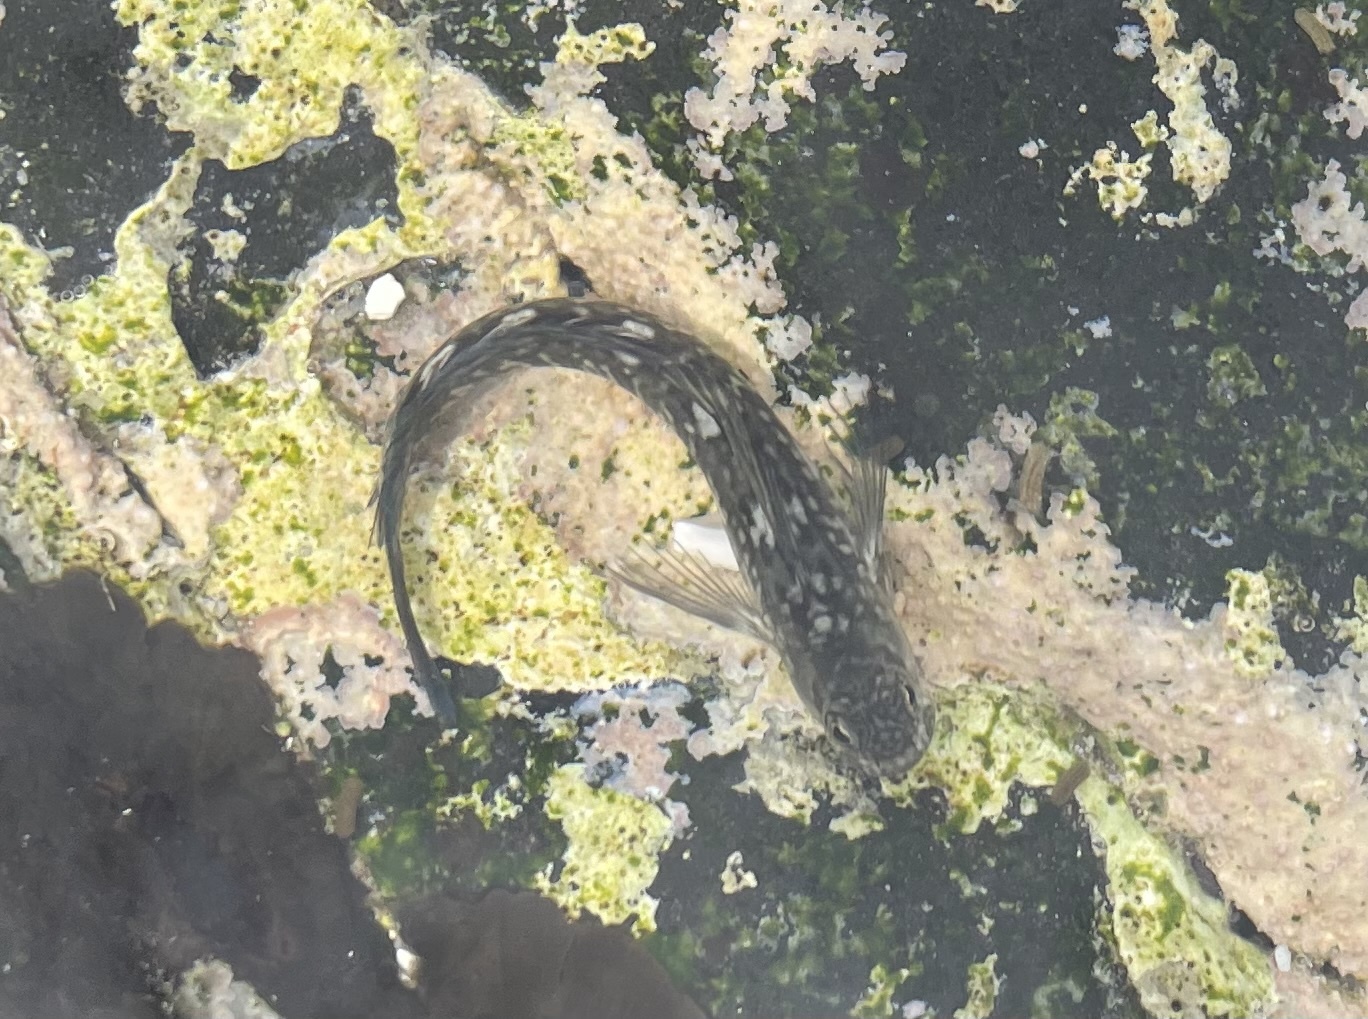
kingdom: Animalia
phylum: Chordata
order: Perciformes
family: Blenniidae
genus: Istiblennius
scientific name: Istiblennius zebra
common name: Zebra blenny
